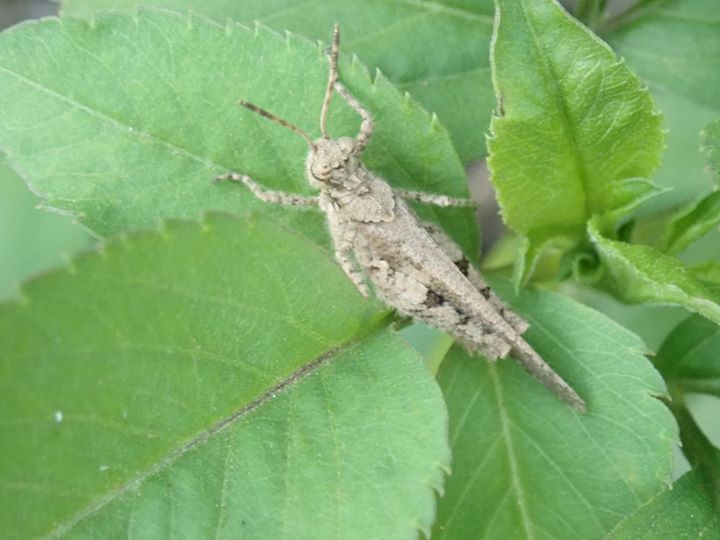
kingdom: Animalia
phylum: Arthropoda
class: Insecta
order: Orthoptera
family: Acrididae
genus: Trilophidia
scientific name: Trilophidia annulata
